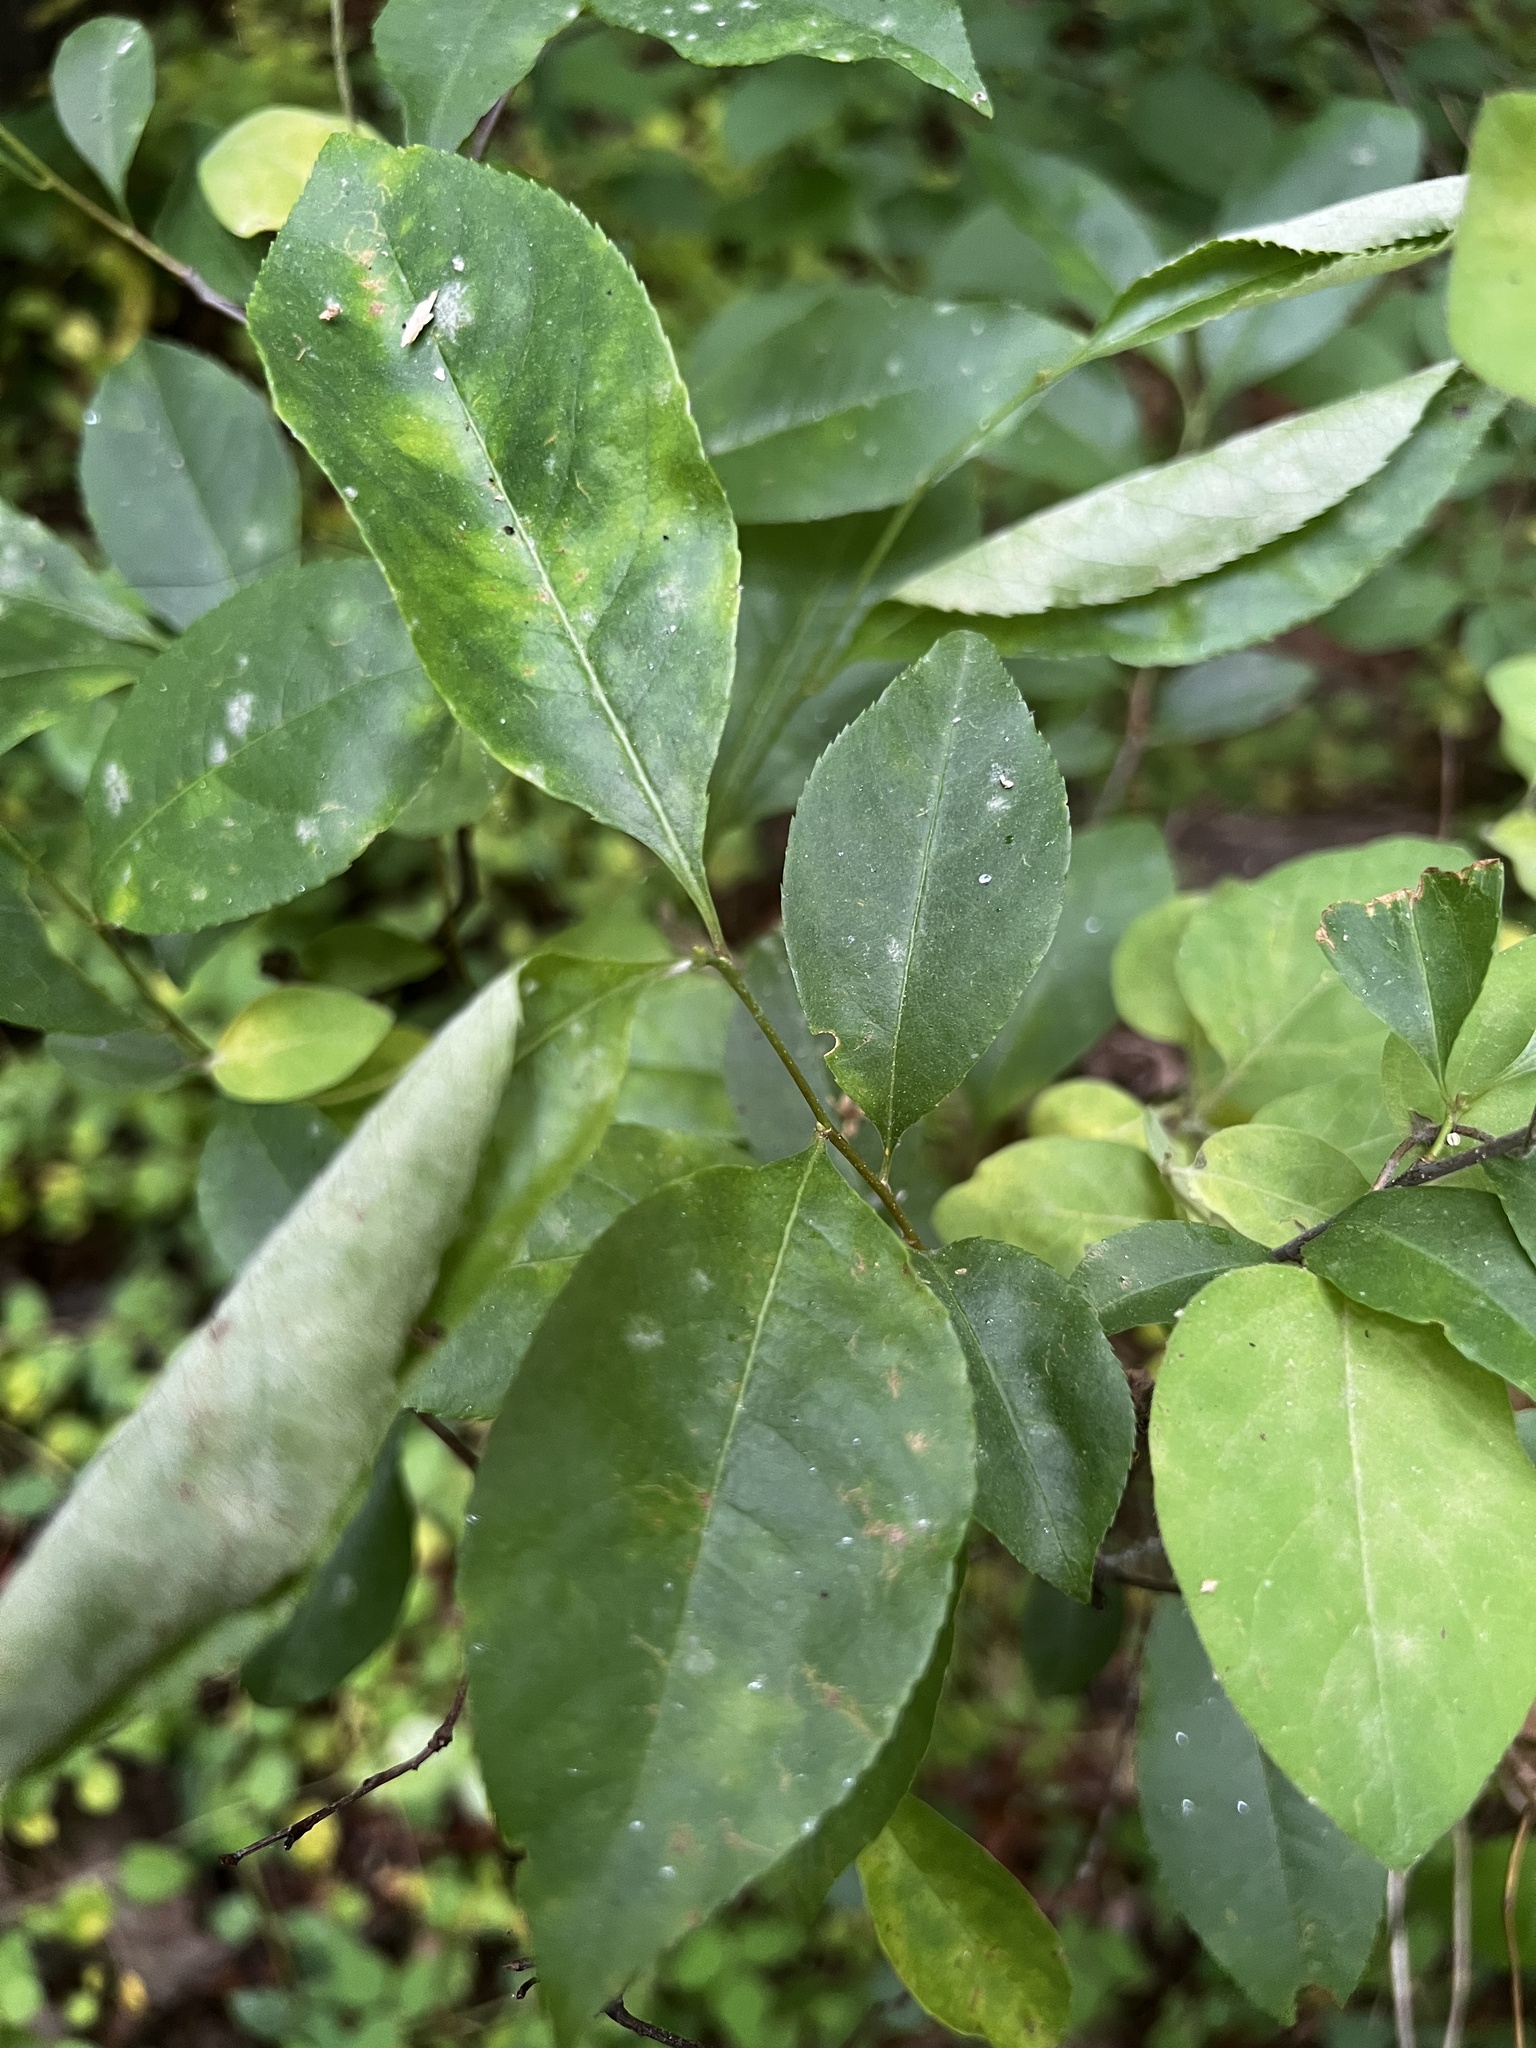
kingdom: Fungi
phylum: Ascomycota
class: Leotiomycetes
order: Helotiales
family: Erysiphaceae
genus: Podosphaera
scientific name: Podosphaera prunicola
